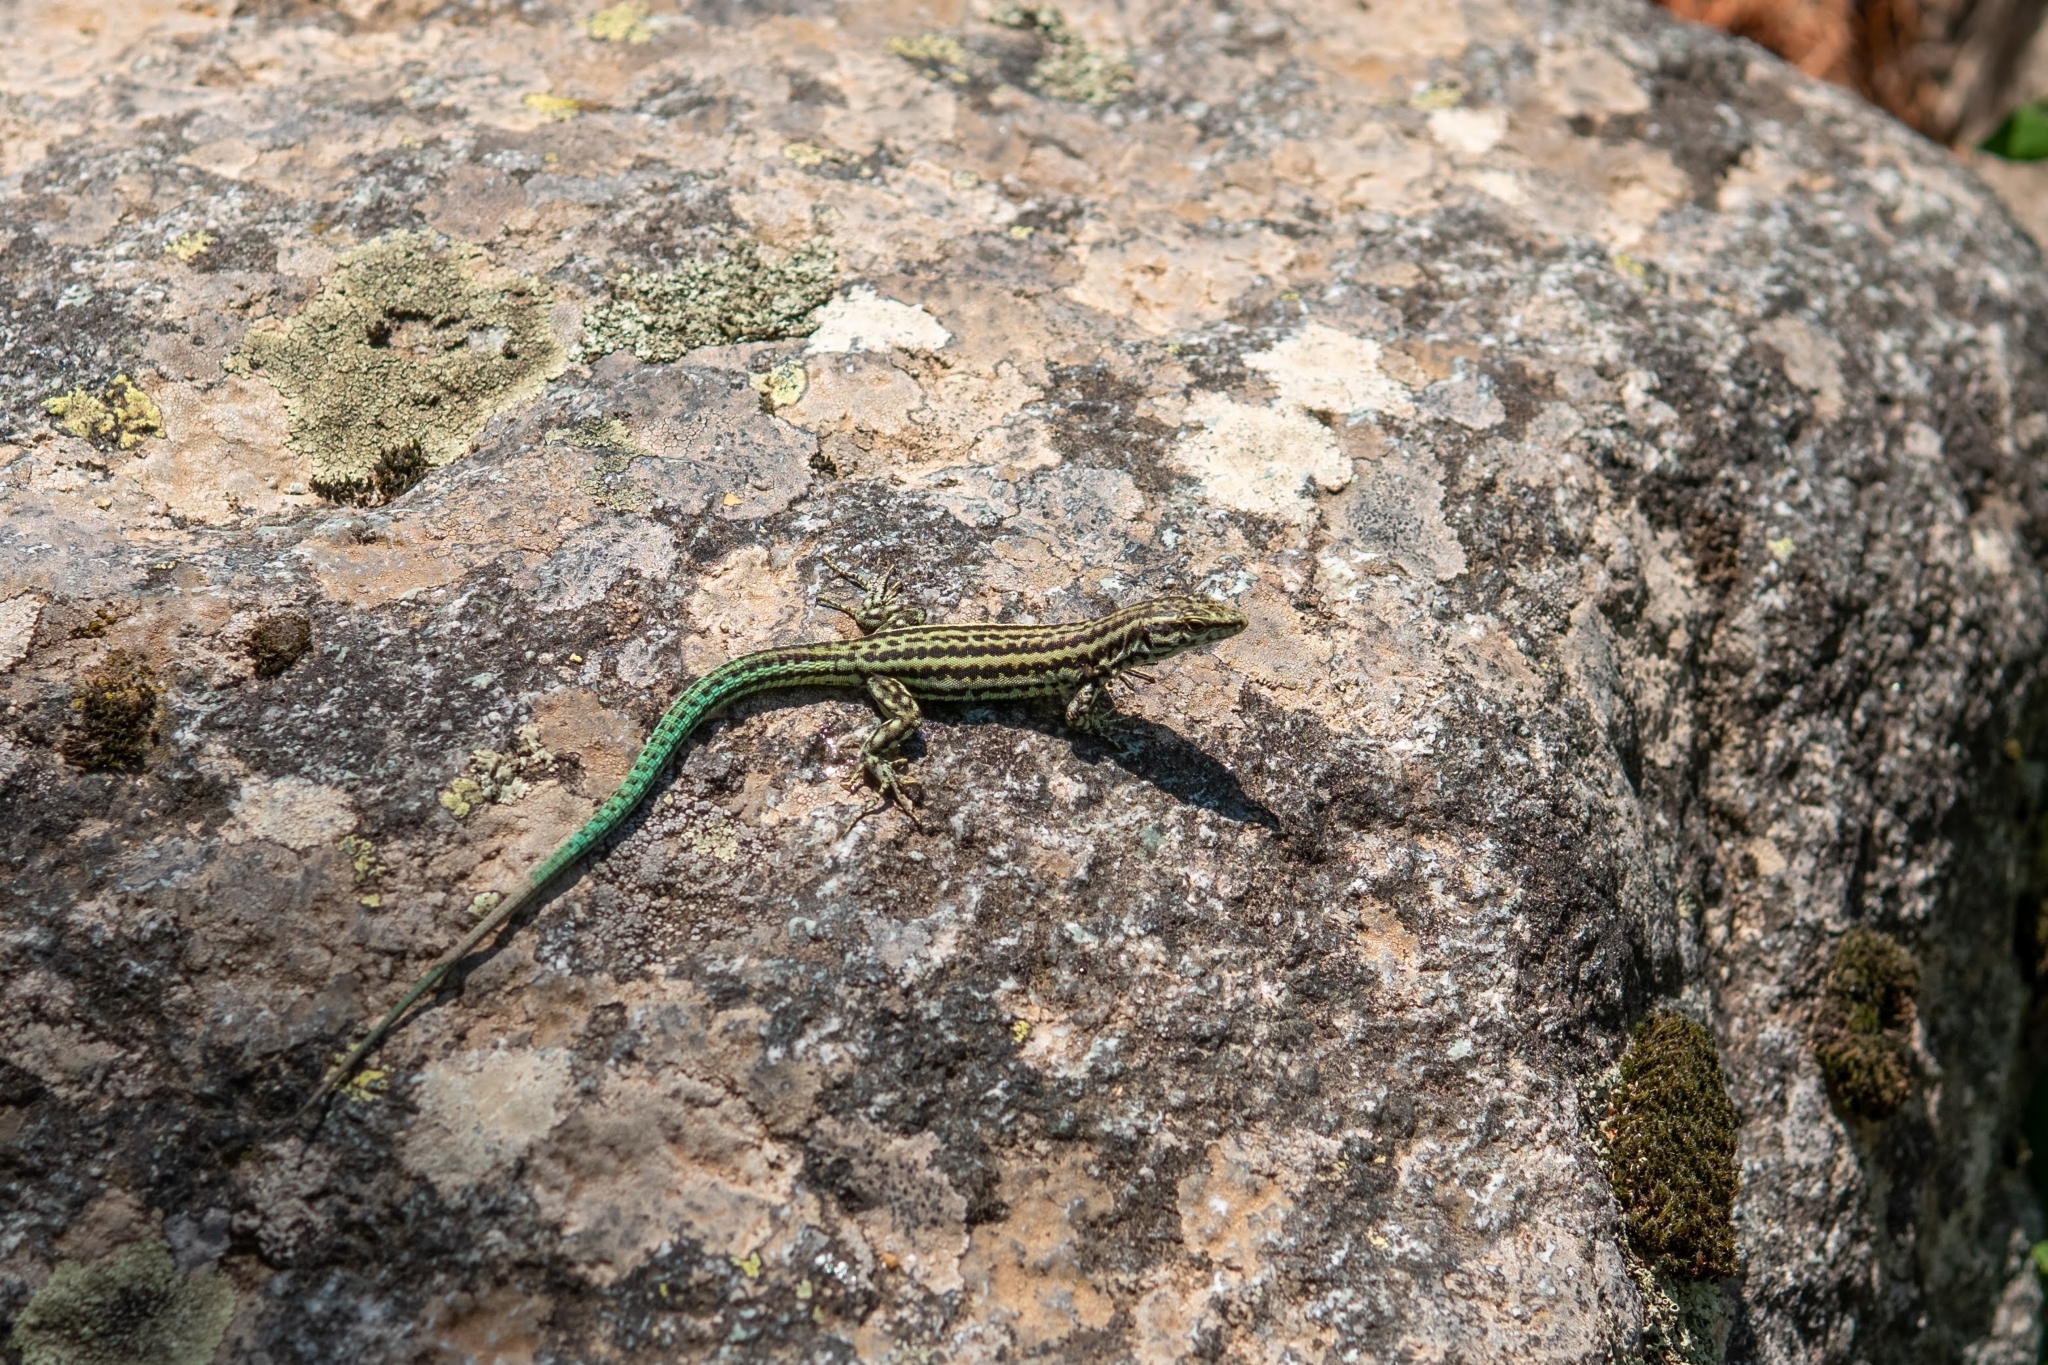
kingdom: Animalia
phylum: Chordata
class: Squamata
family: Lacertidae
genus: Podarcis
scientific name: Podarcis tiliguerta
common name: Tyrrhenian wall lizard
